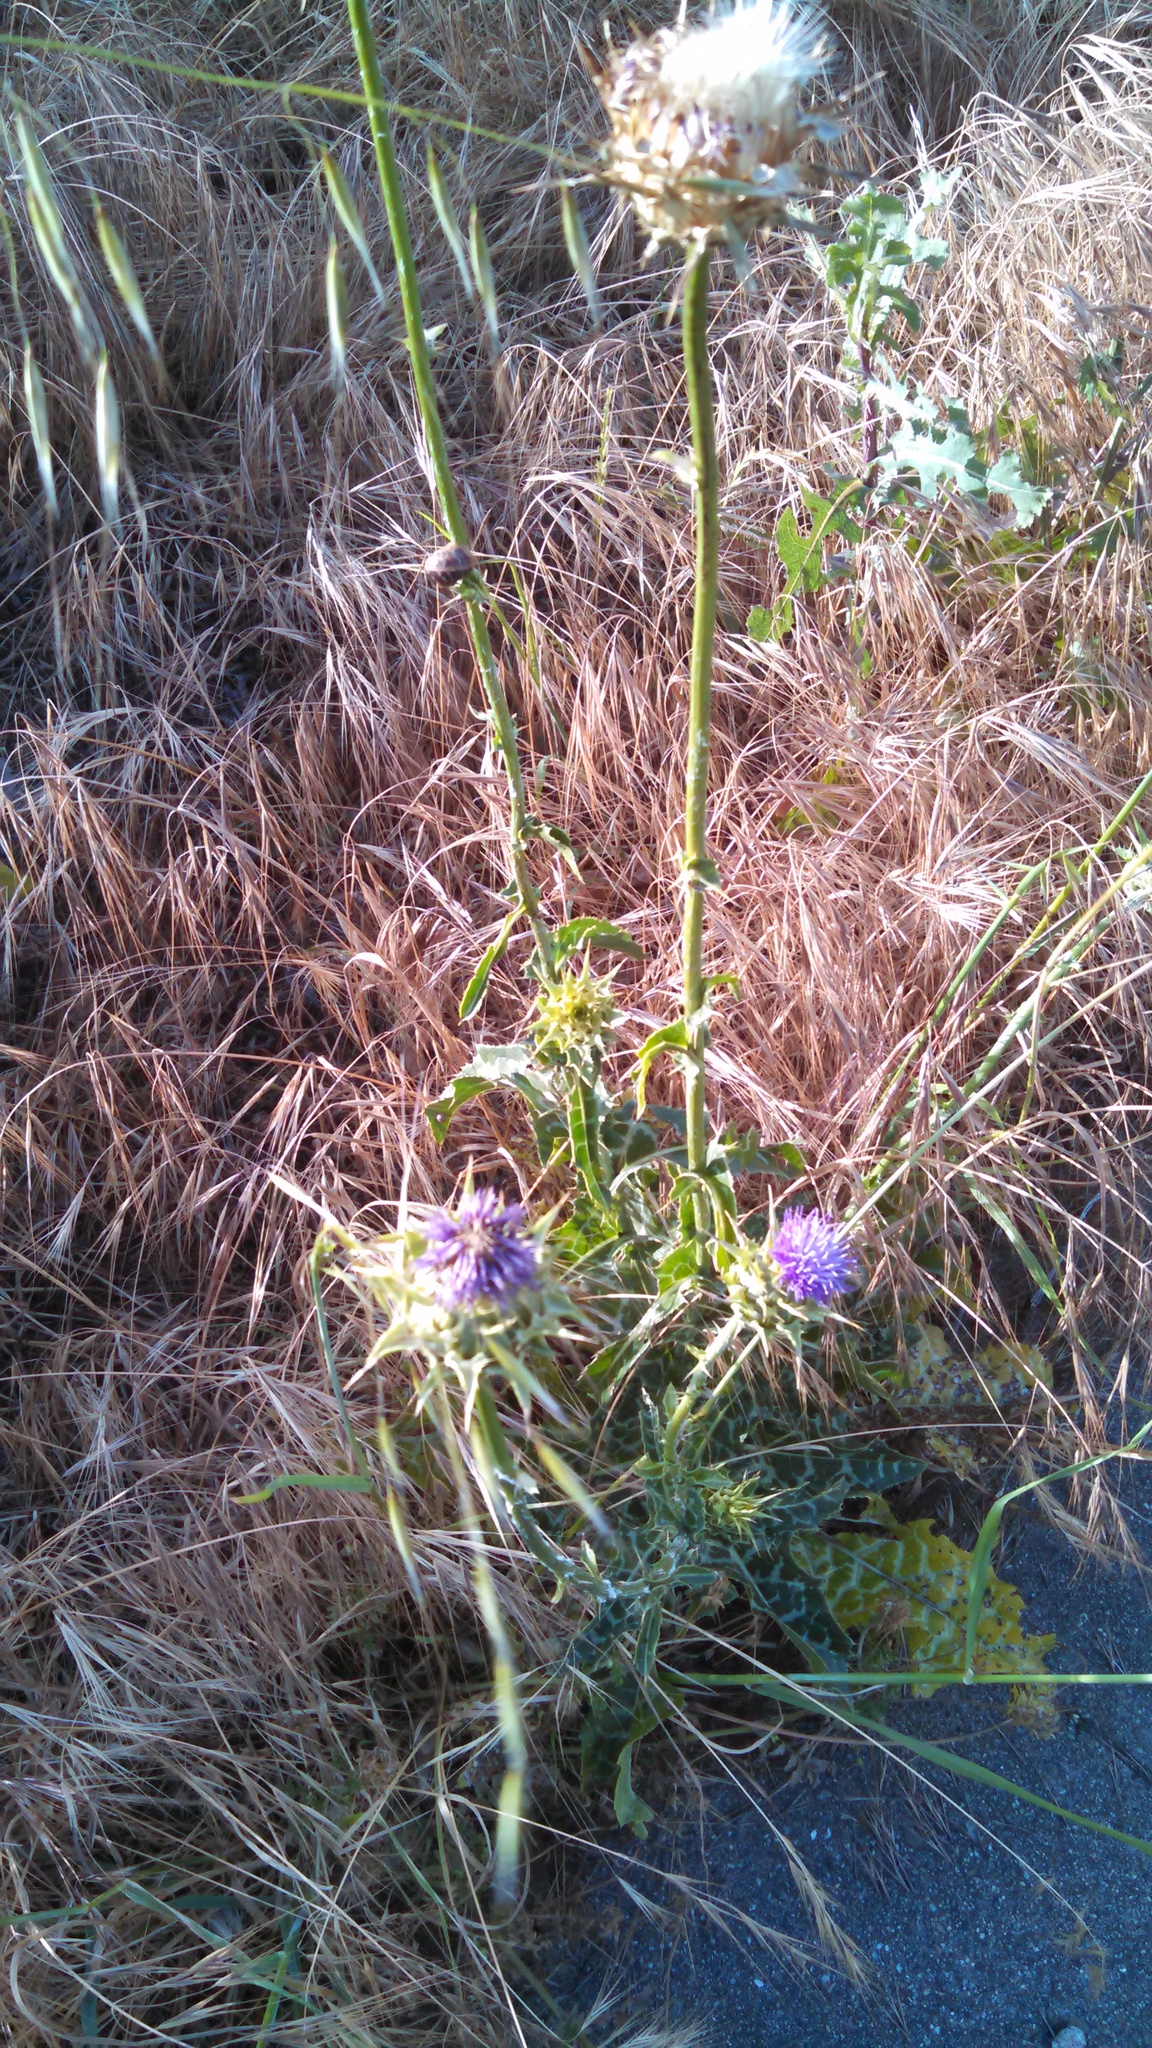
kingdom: Plantae
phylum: Tracheophyta
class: Magnoliopsida
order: Asterales
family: Asteraceae
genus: Silybum
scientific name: Silybum marianum
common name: Milk thistle
